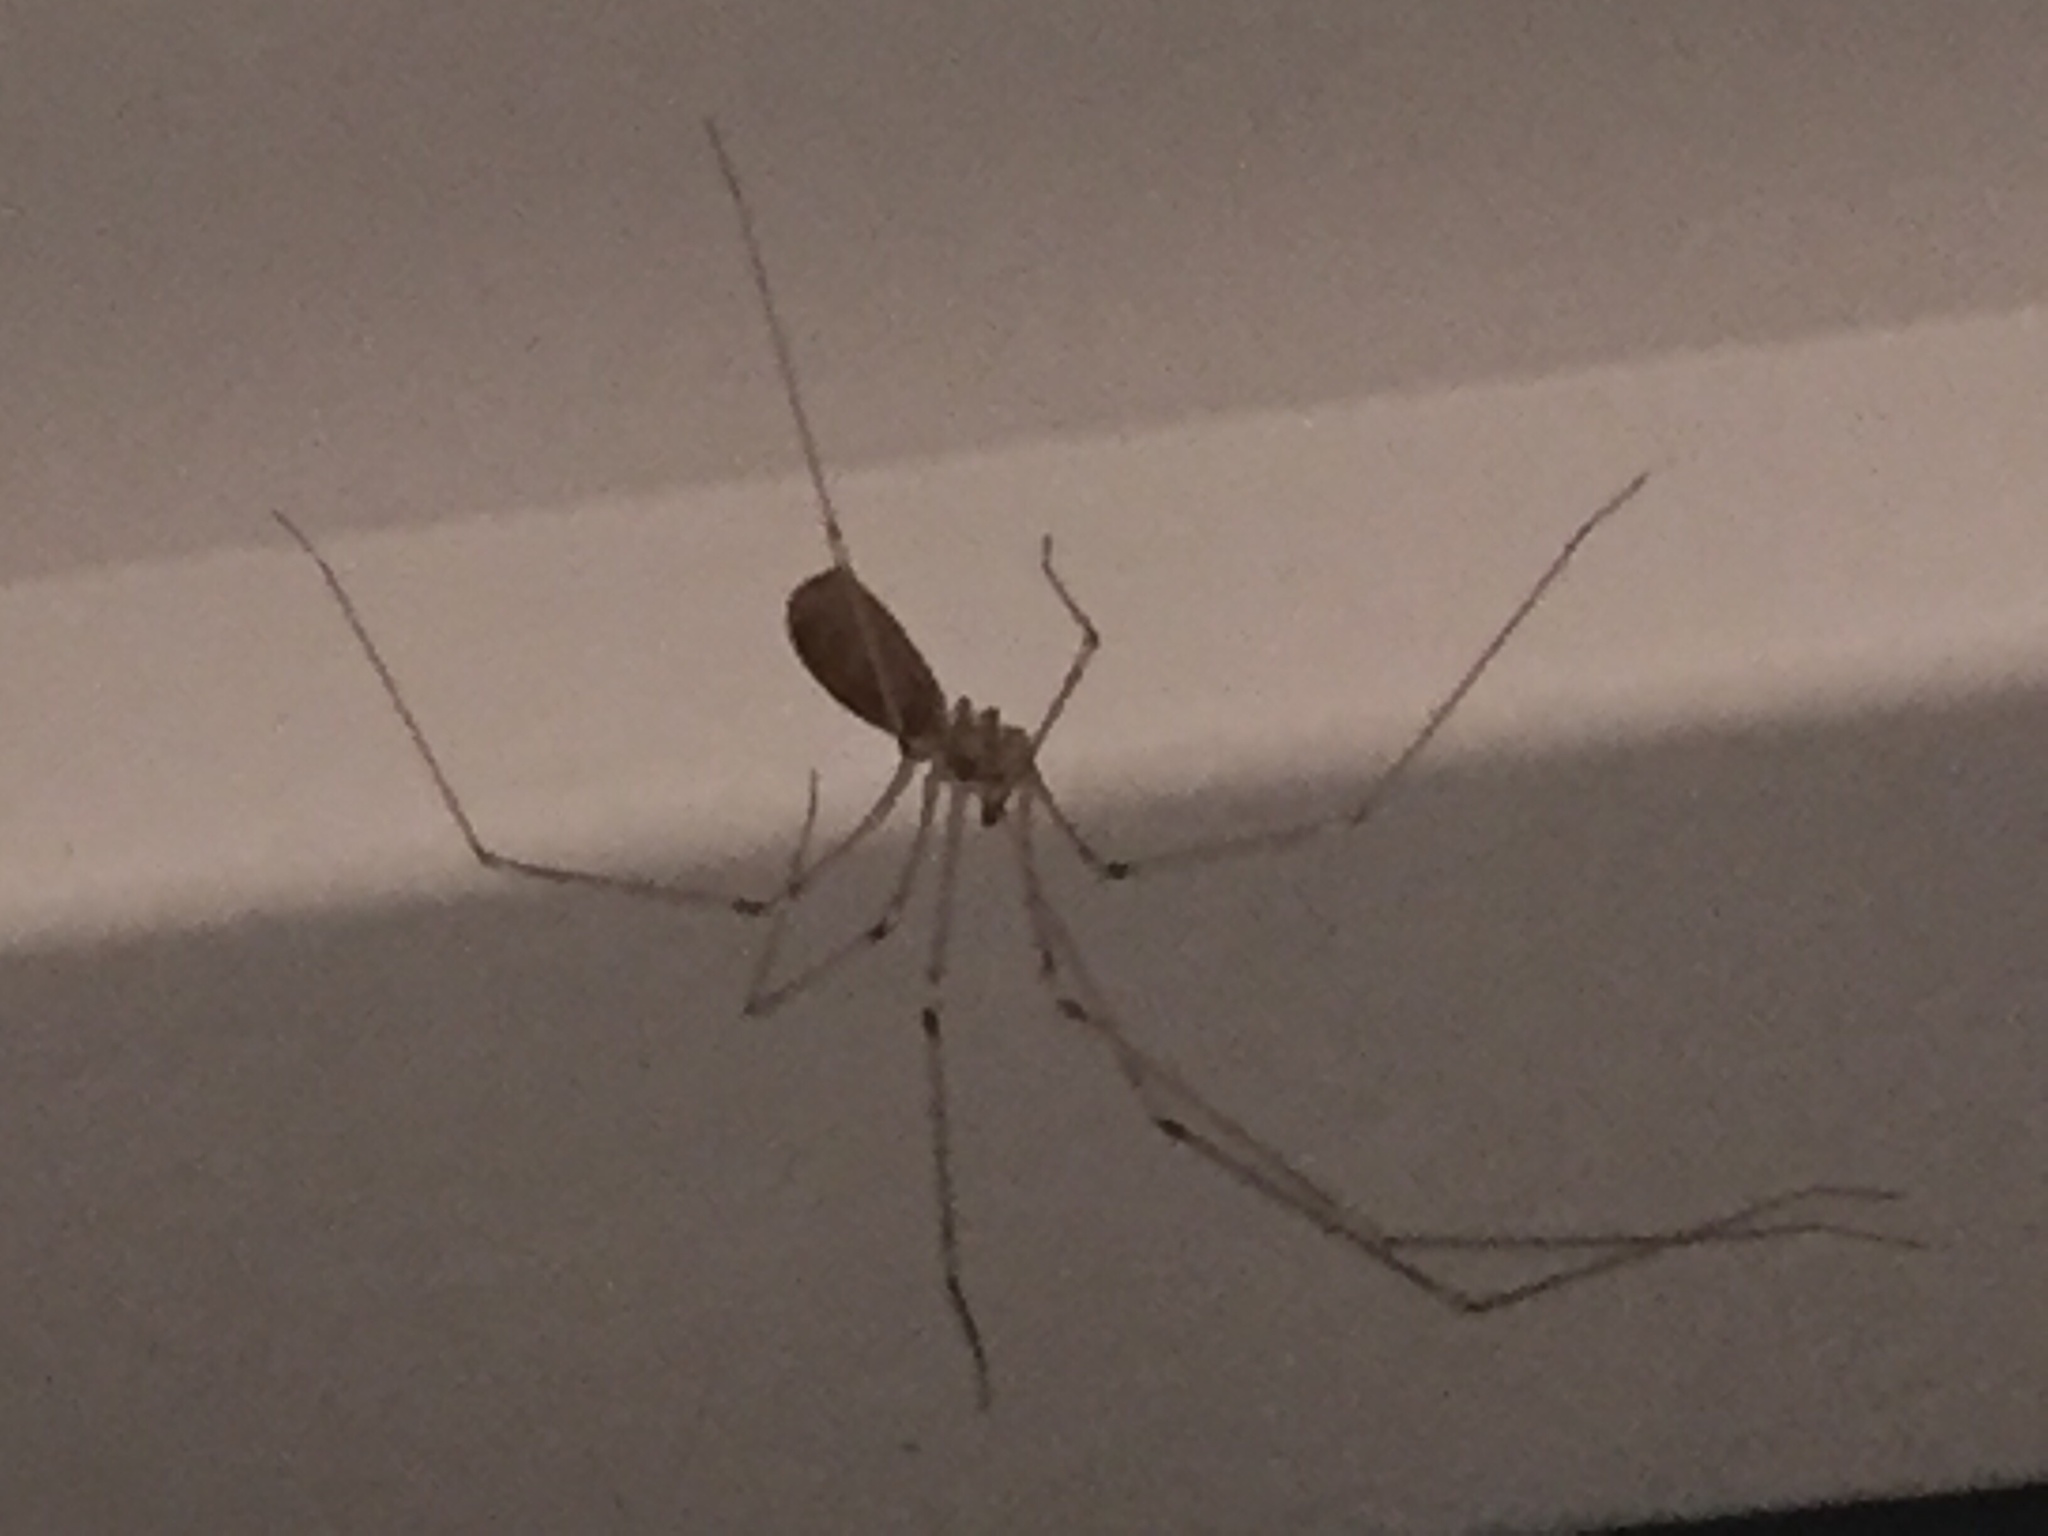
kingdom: Animalia
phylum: Arthropoda
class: Arachnida
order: Araneae
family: Pholcidae
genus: Pholcus
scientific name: Pholcus phalangioides
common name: Longbodied cellar spider
